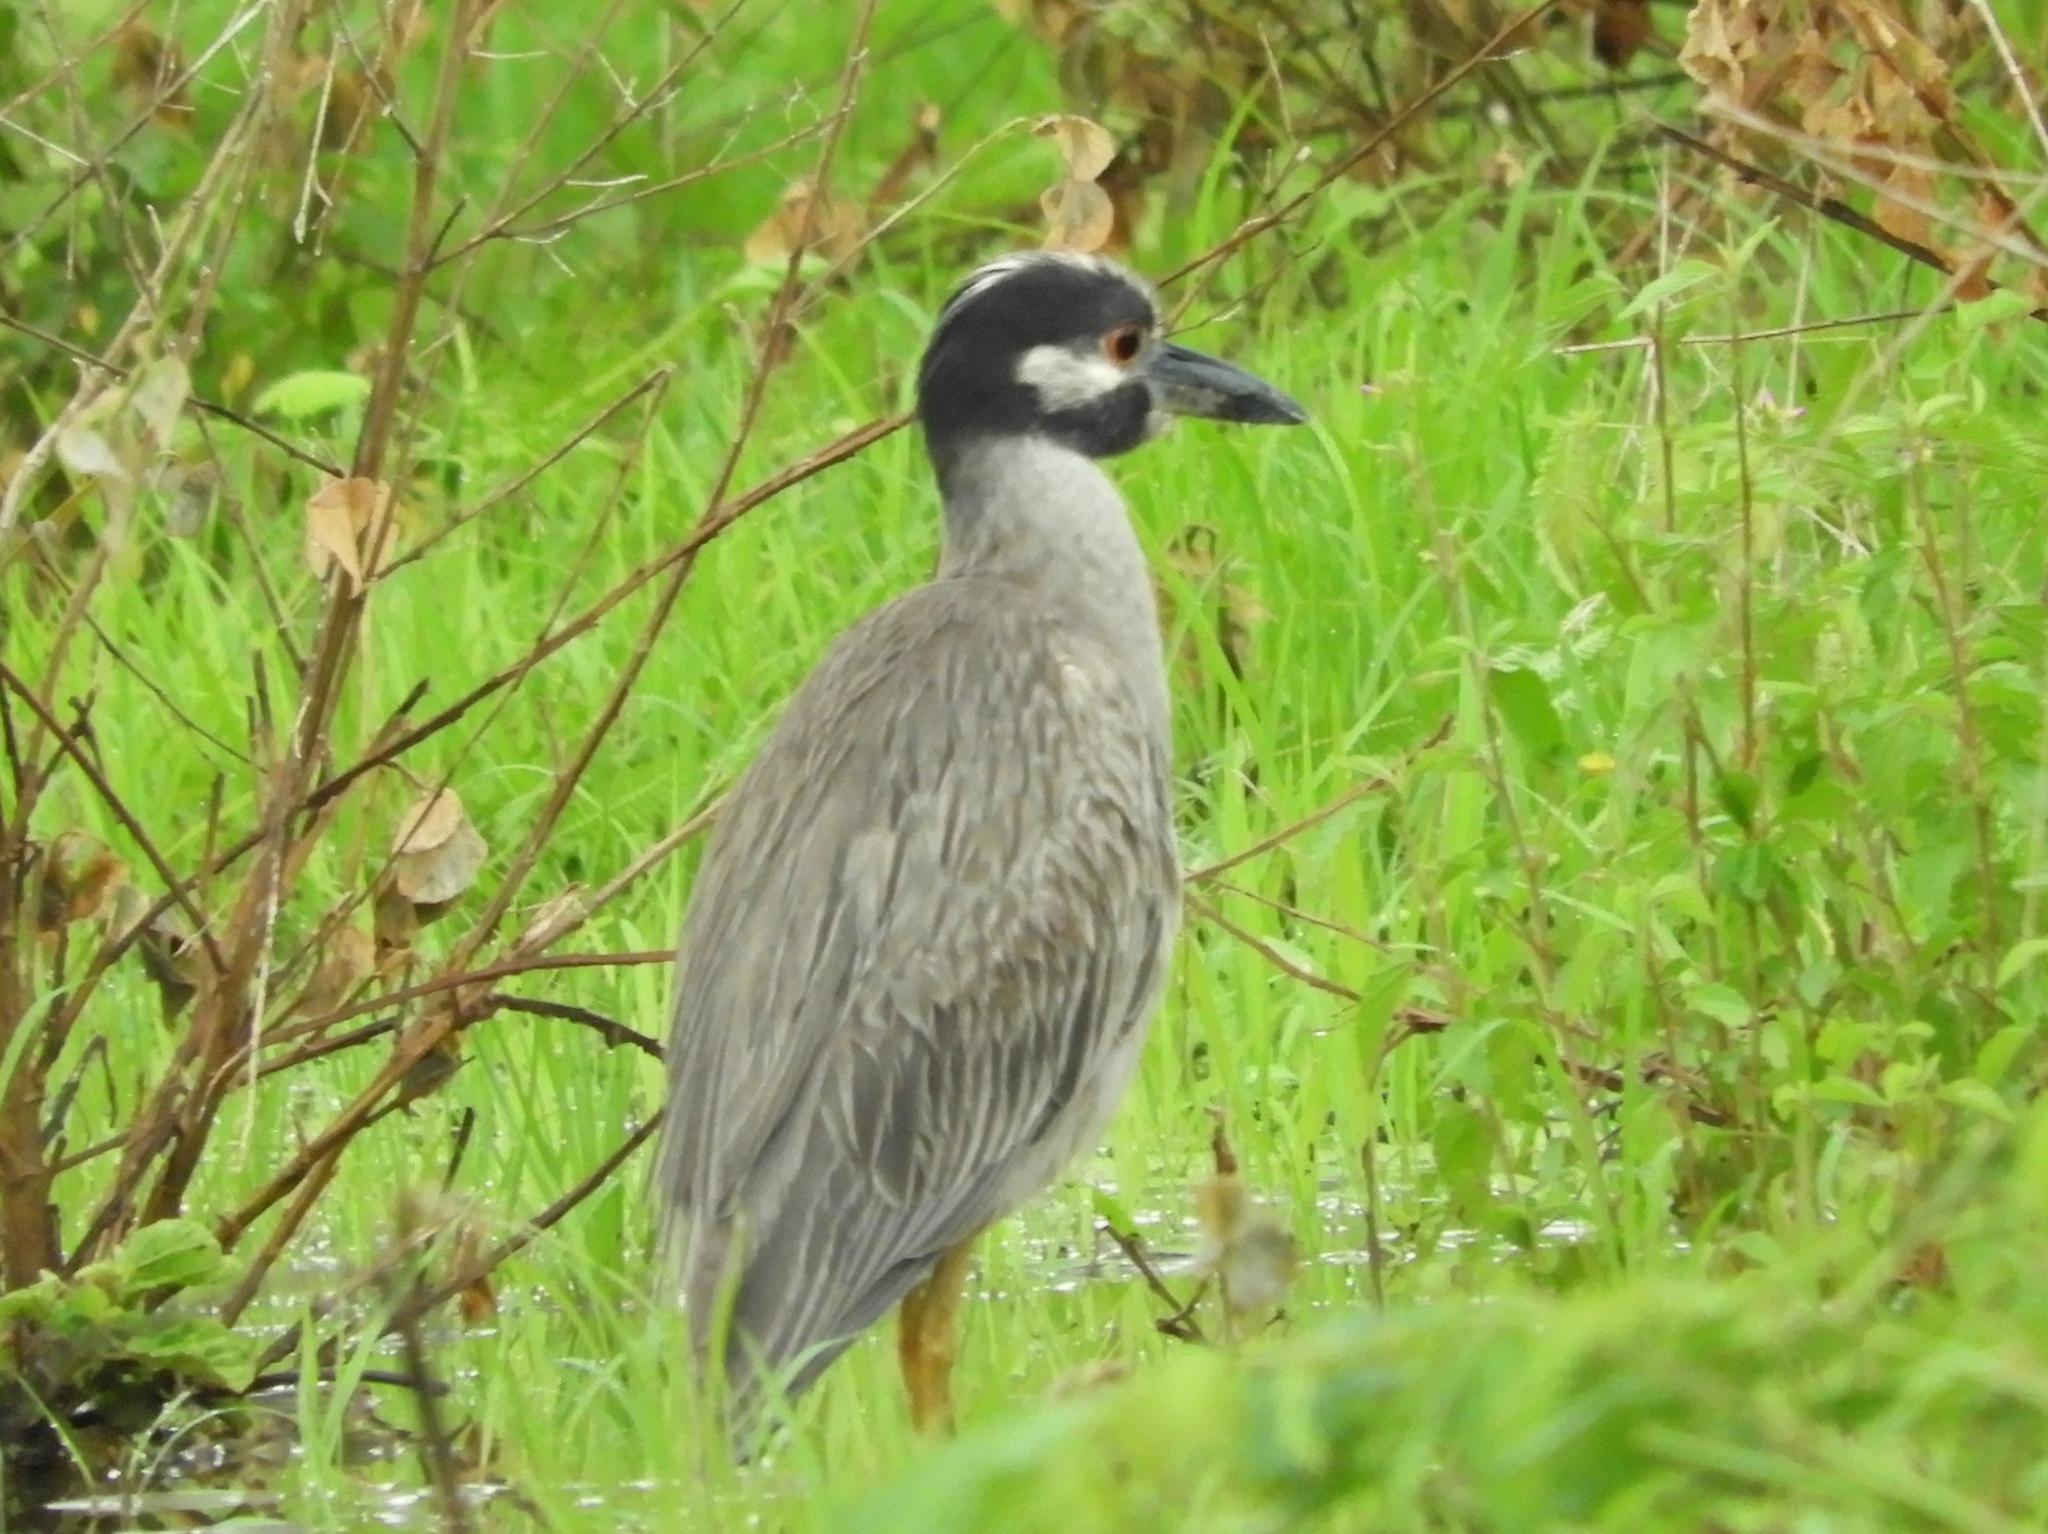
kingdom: Animalia
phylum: Chordata
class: Aves
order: Pelecaniformes
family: Ardeidae
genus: Nyctanassa
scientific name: Nyctanassa violacea
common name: Yellow-crowned night heron
